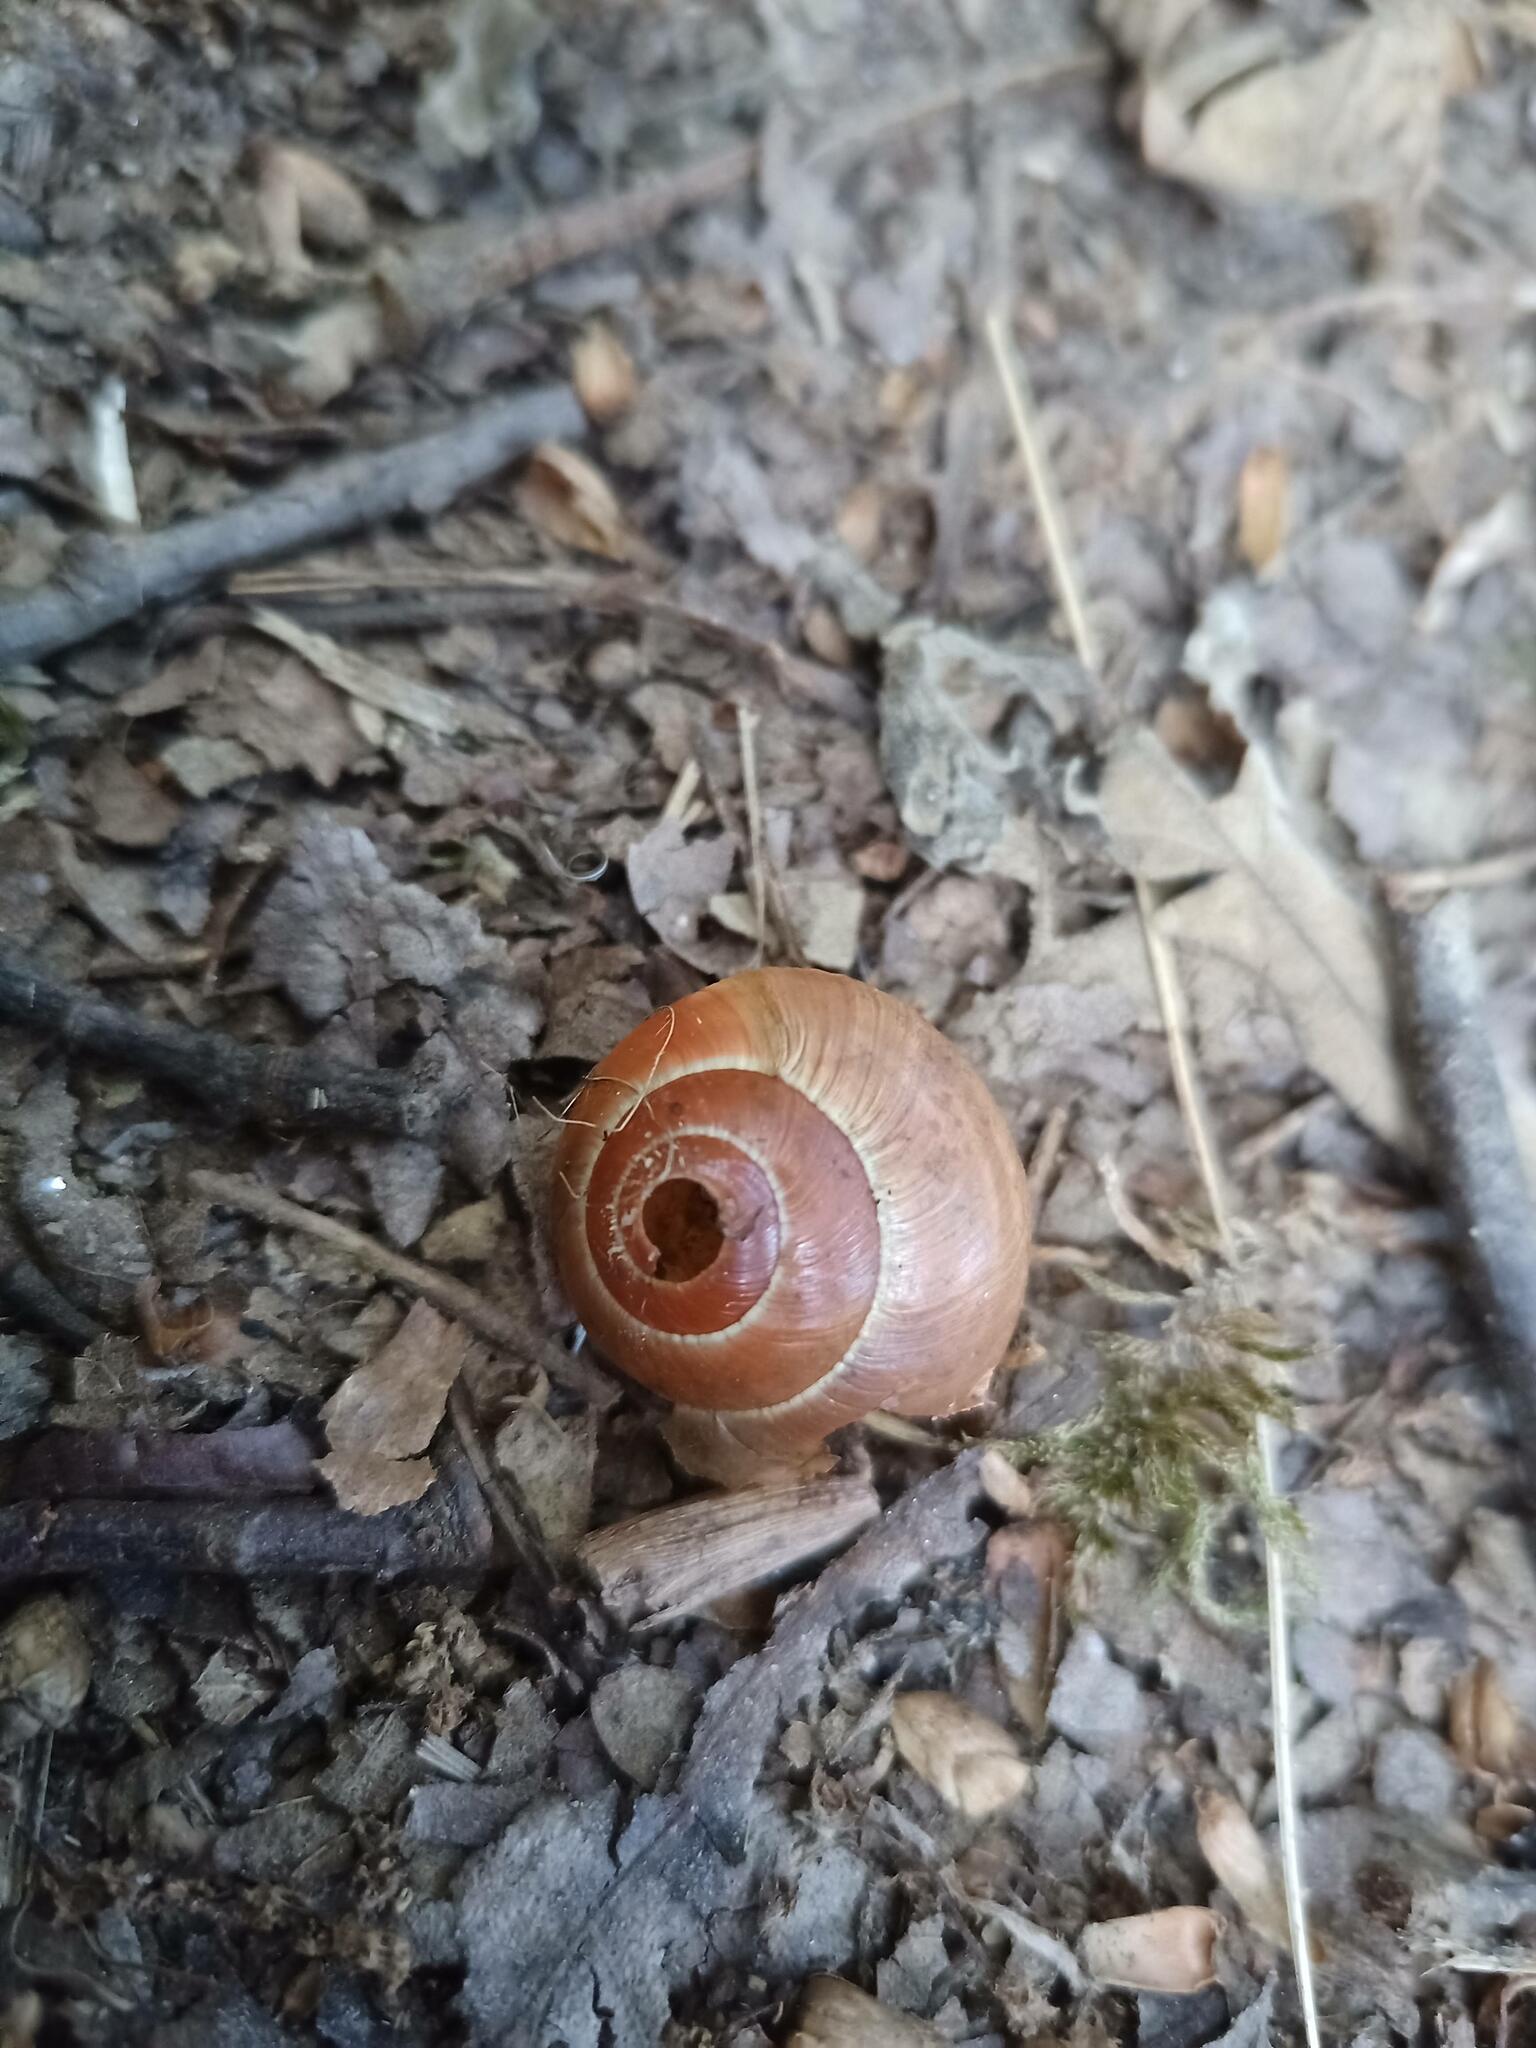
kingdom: Animalia
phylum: Mollusca
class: Gastropoda
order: Stylommatophora
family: Helicidae
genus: Cepaea
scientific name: Cepaea nemoralis
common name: Grovesnail
